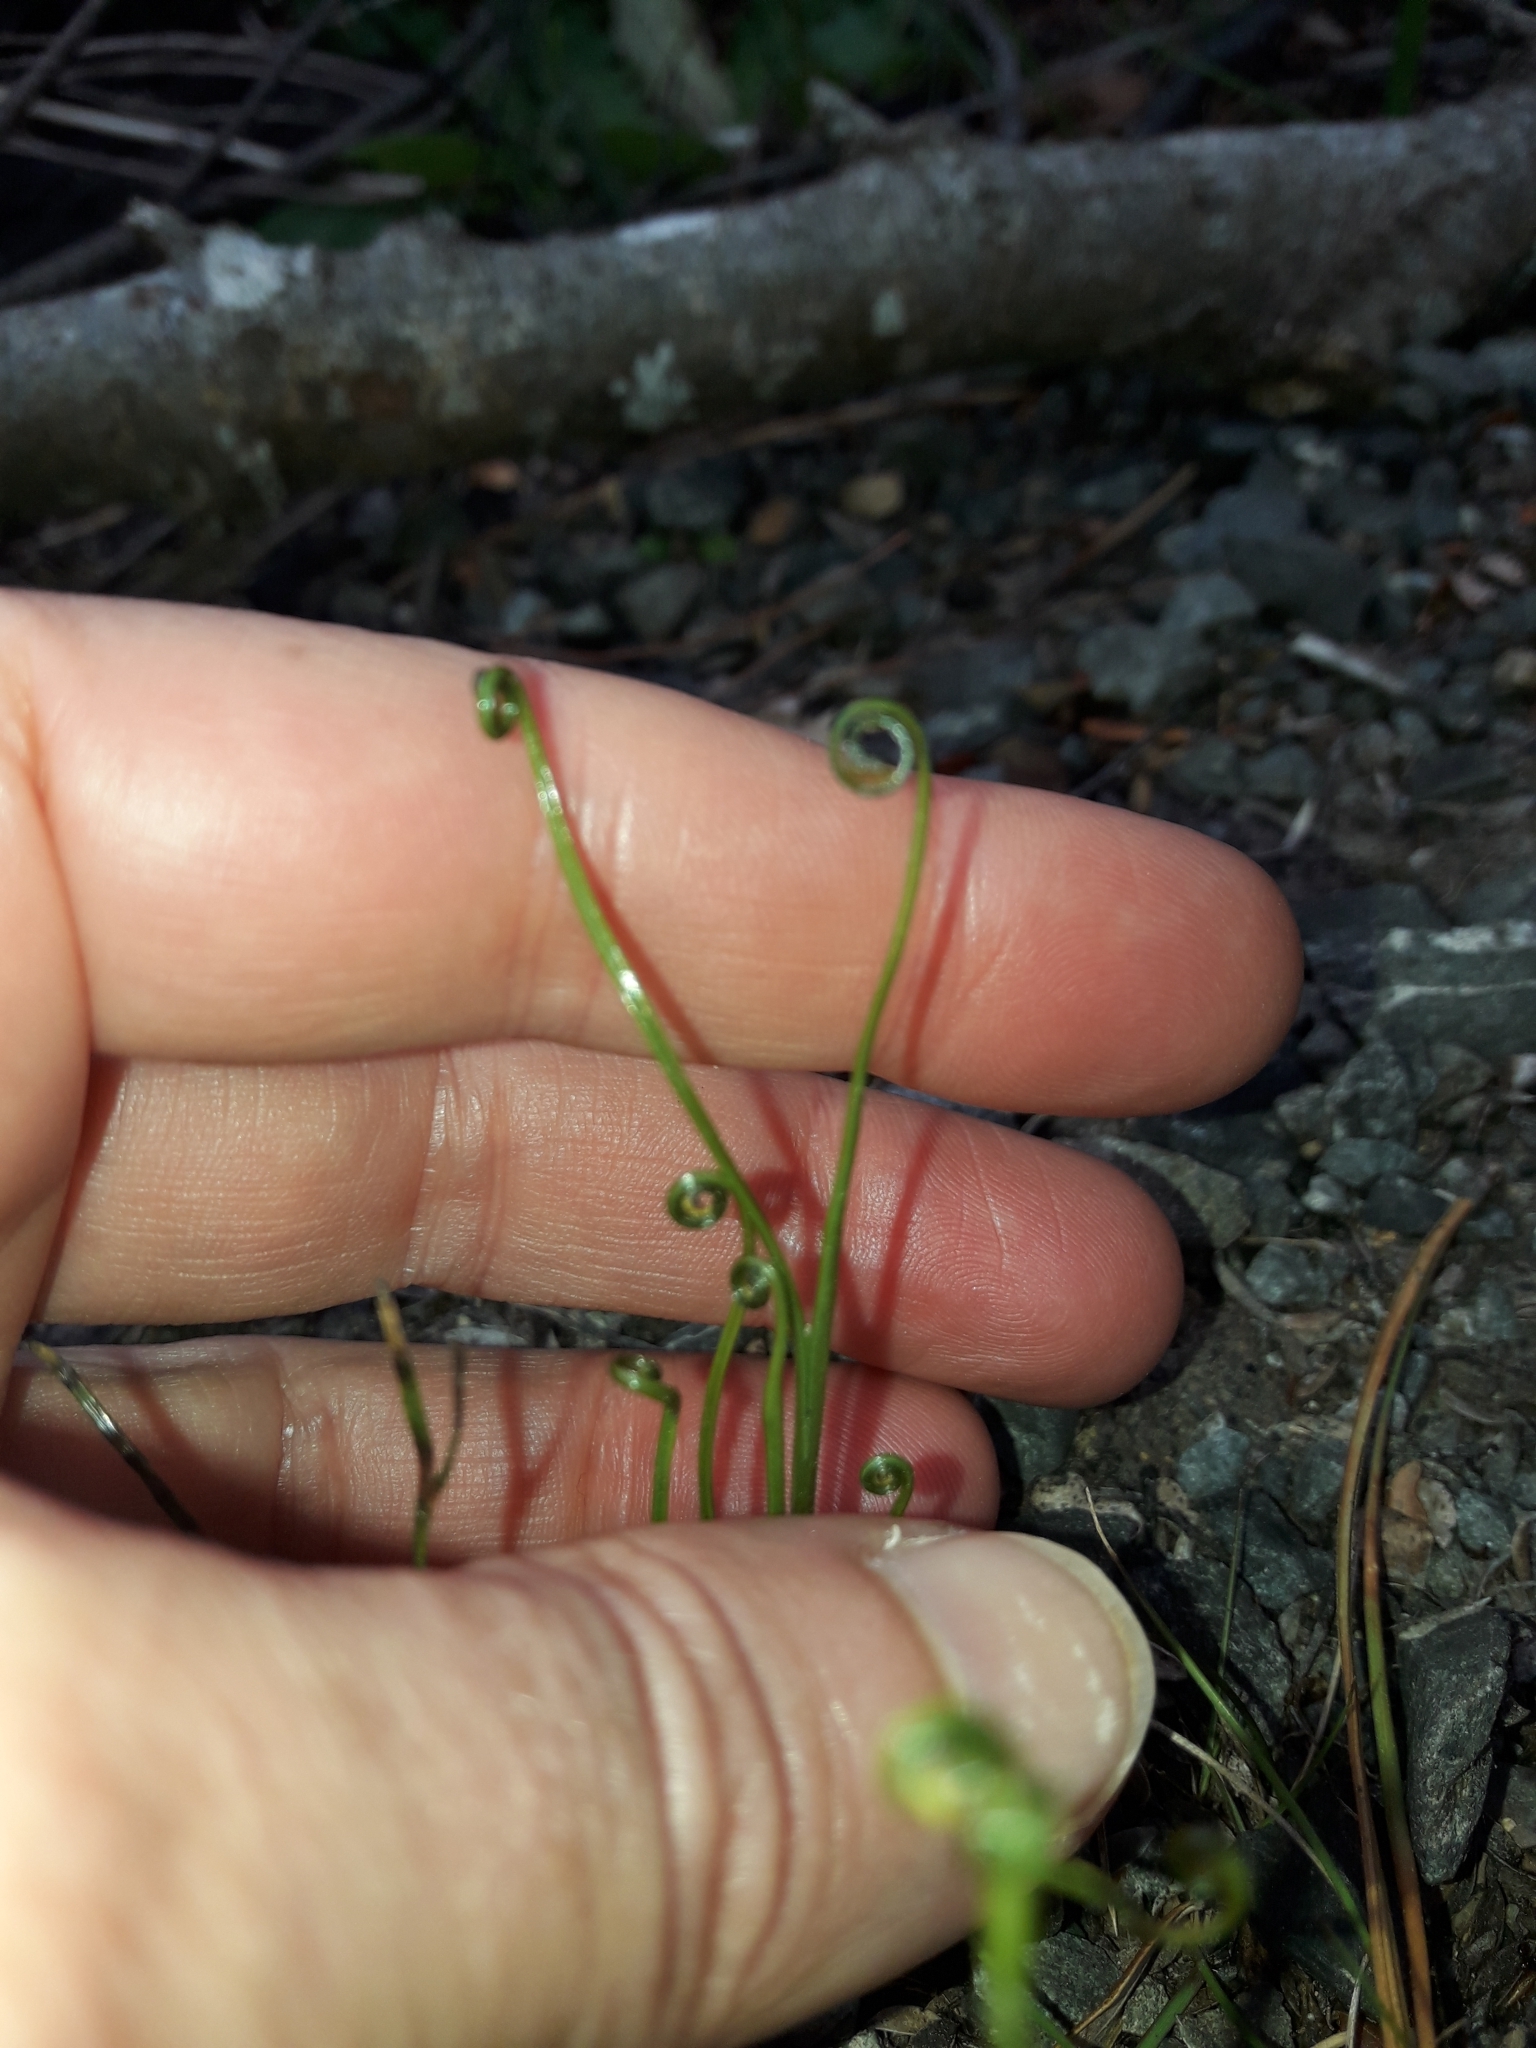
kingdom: Plantae
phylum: Tracheophyta
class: Polypodiopsida
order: Schizaeales
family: Schizaeaceae
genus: Schizaea
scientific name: Schizaea bifida
